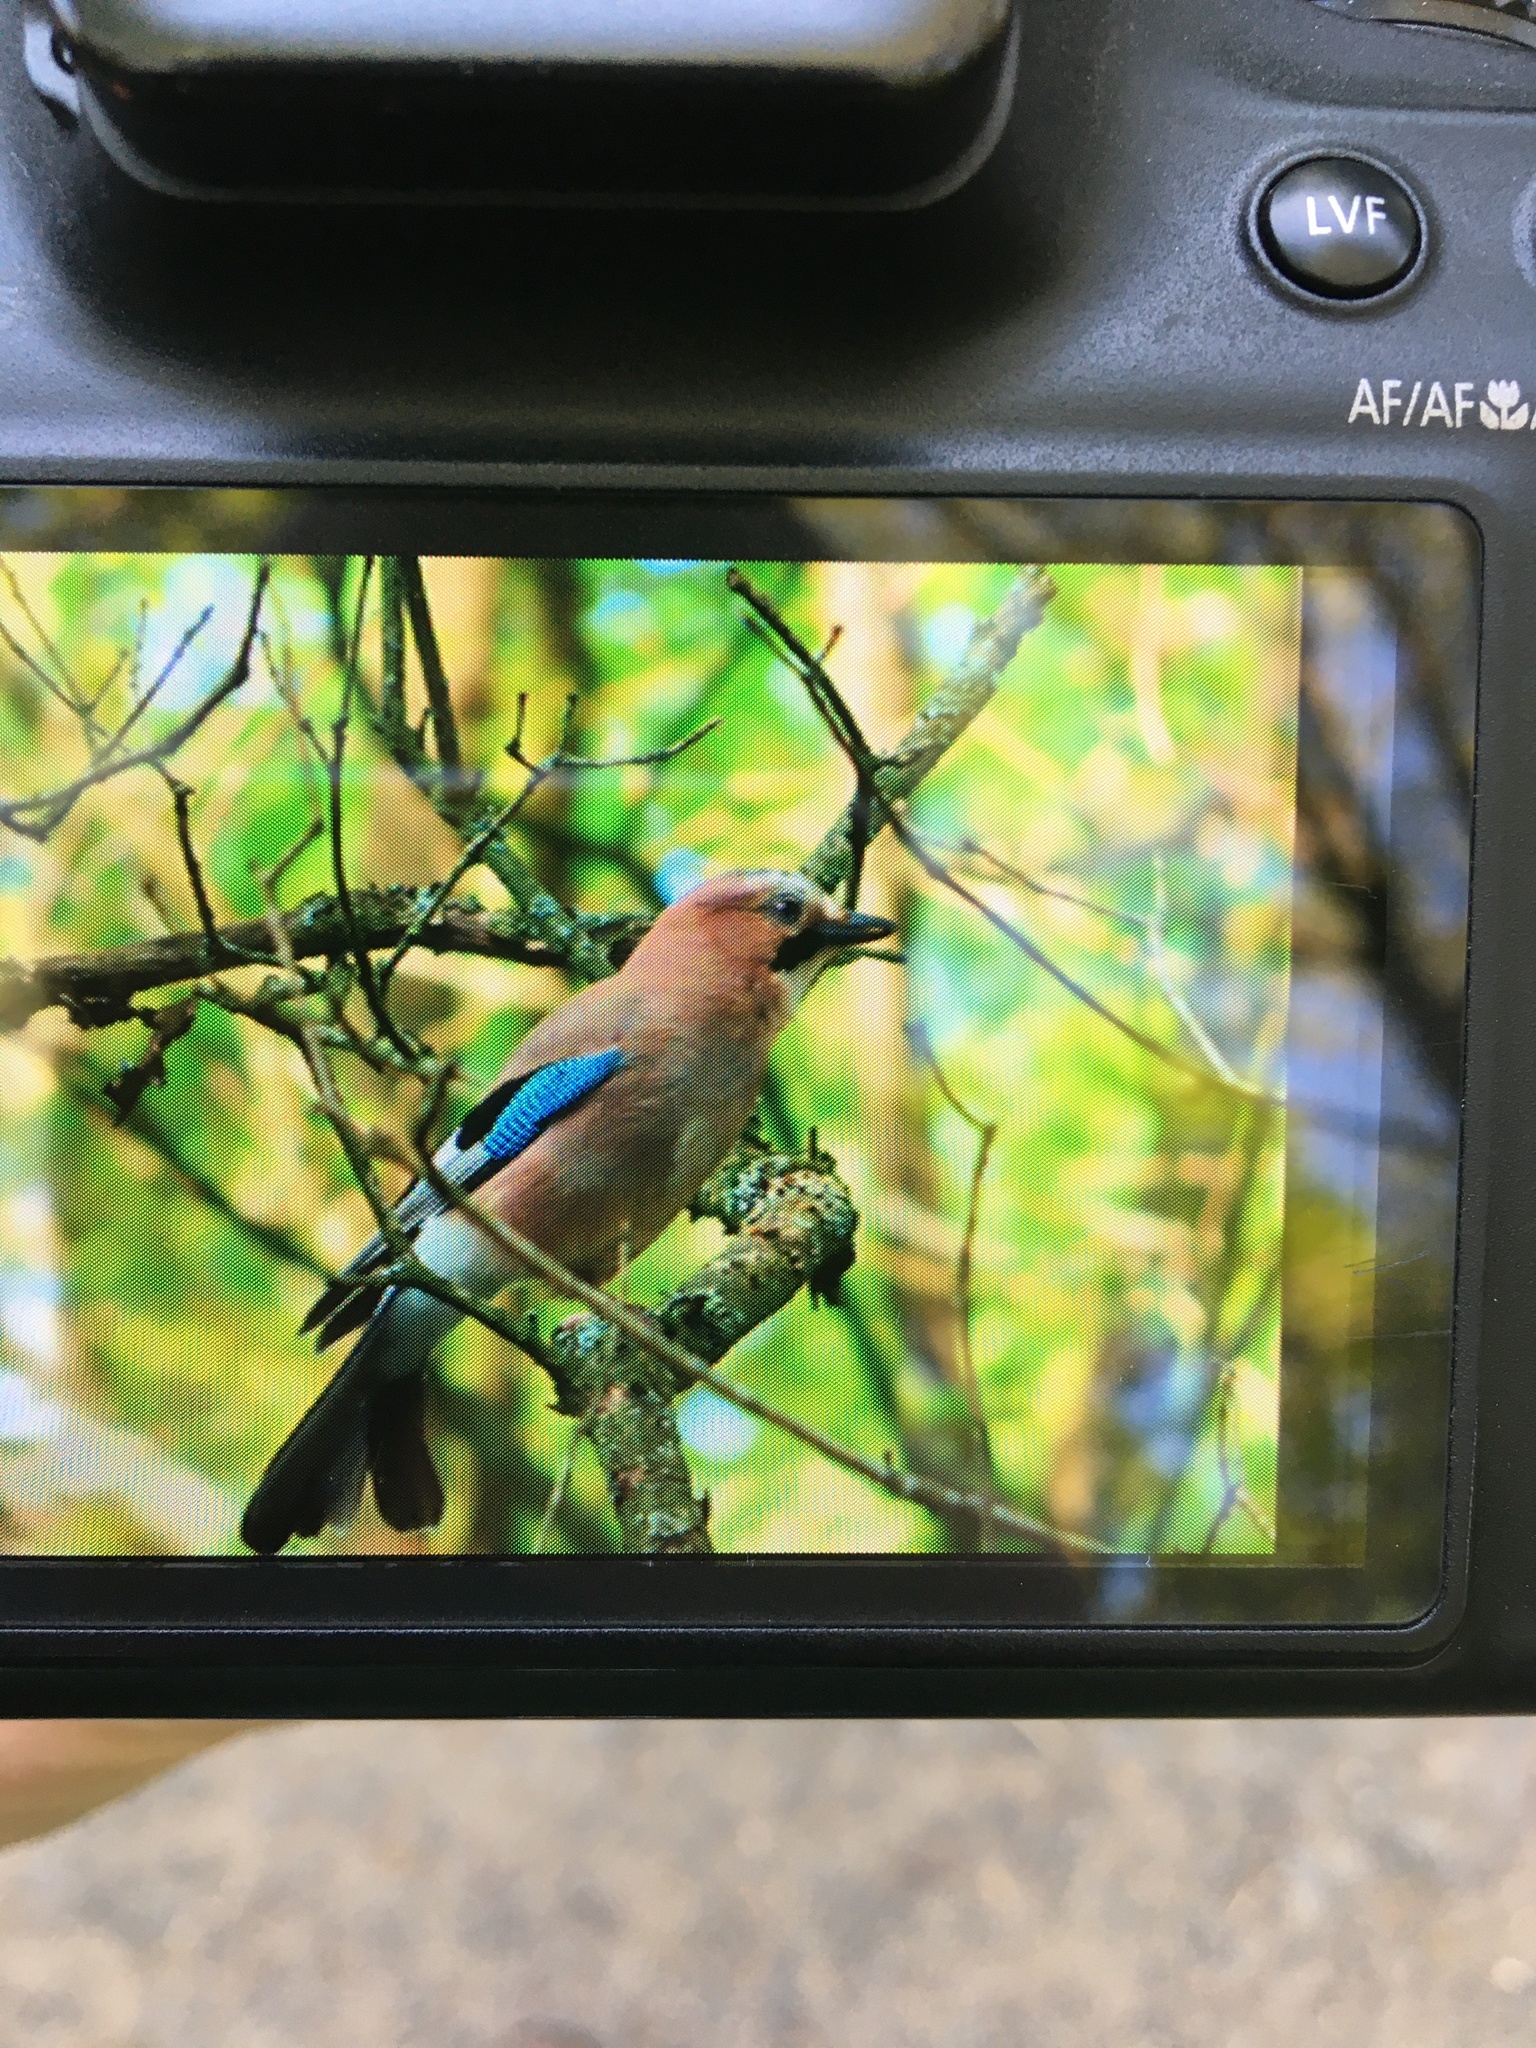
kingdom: Animalia
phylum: Chordata
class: Aves
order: Passeriformes
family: Corvidae
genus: Garrulus
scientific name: Garrulus glandarius
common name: Eurasian jay
